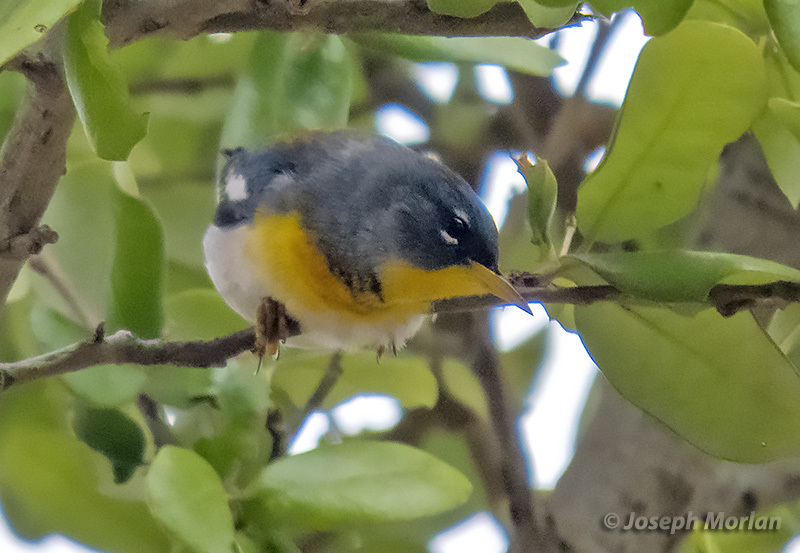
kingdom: Animalia
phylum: Chordata
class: Aves
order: Passeriformes
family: Parulidae
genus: Setophaga
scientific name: Setophaga americana
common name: Northern parula
